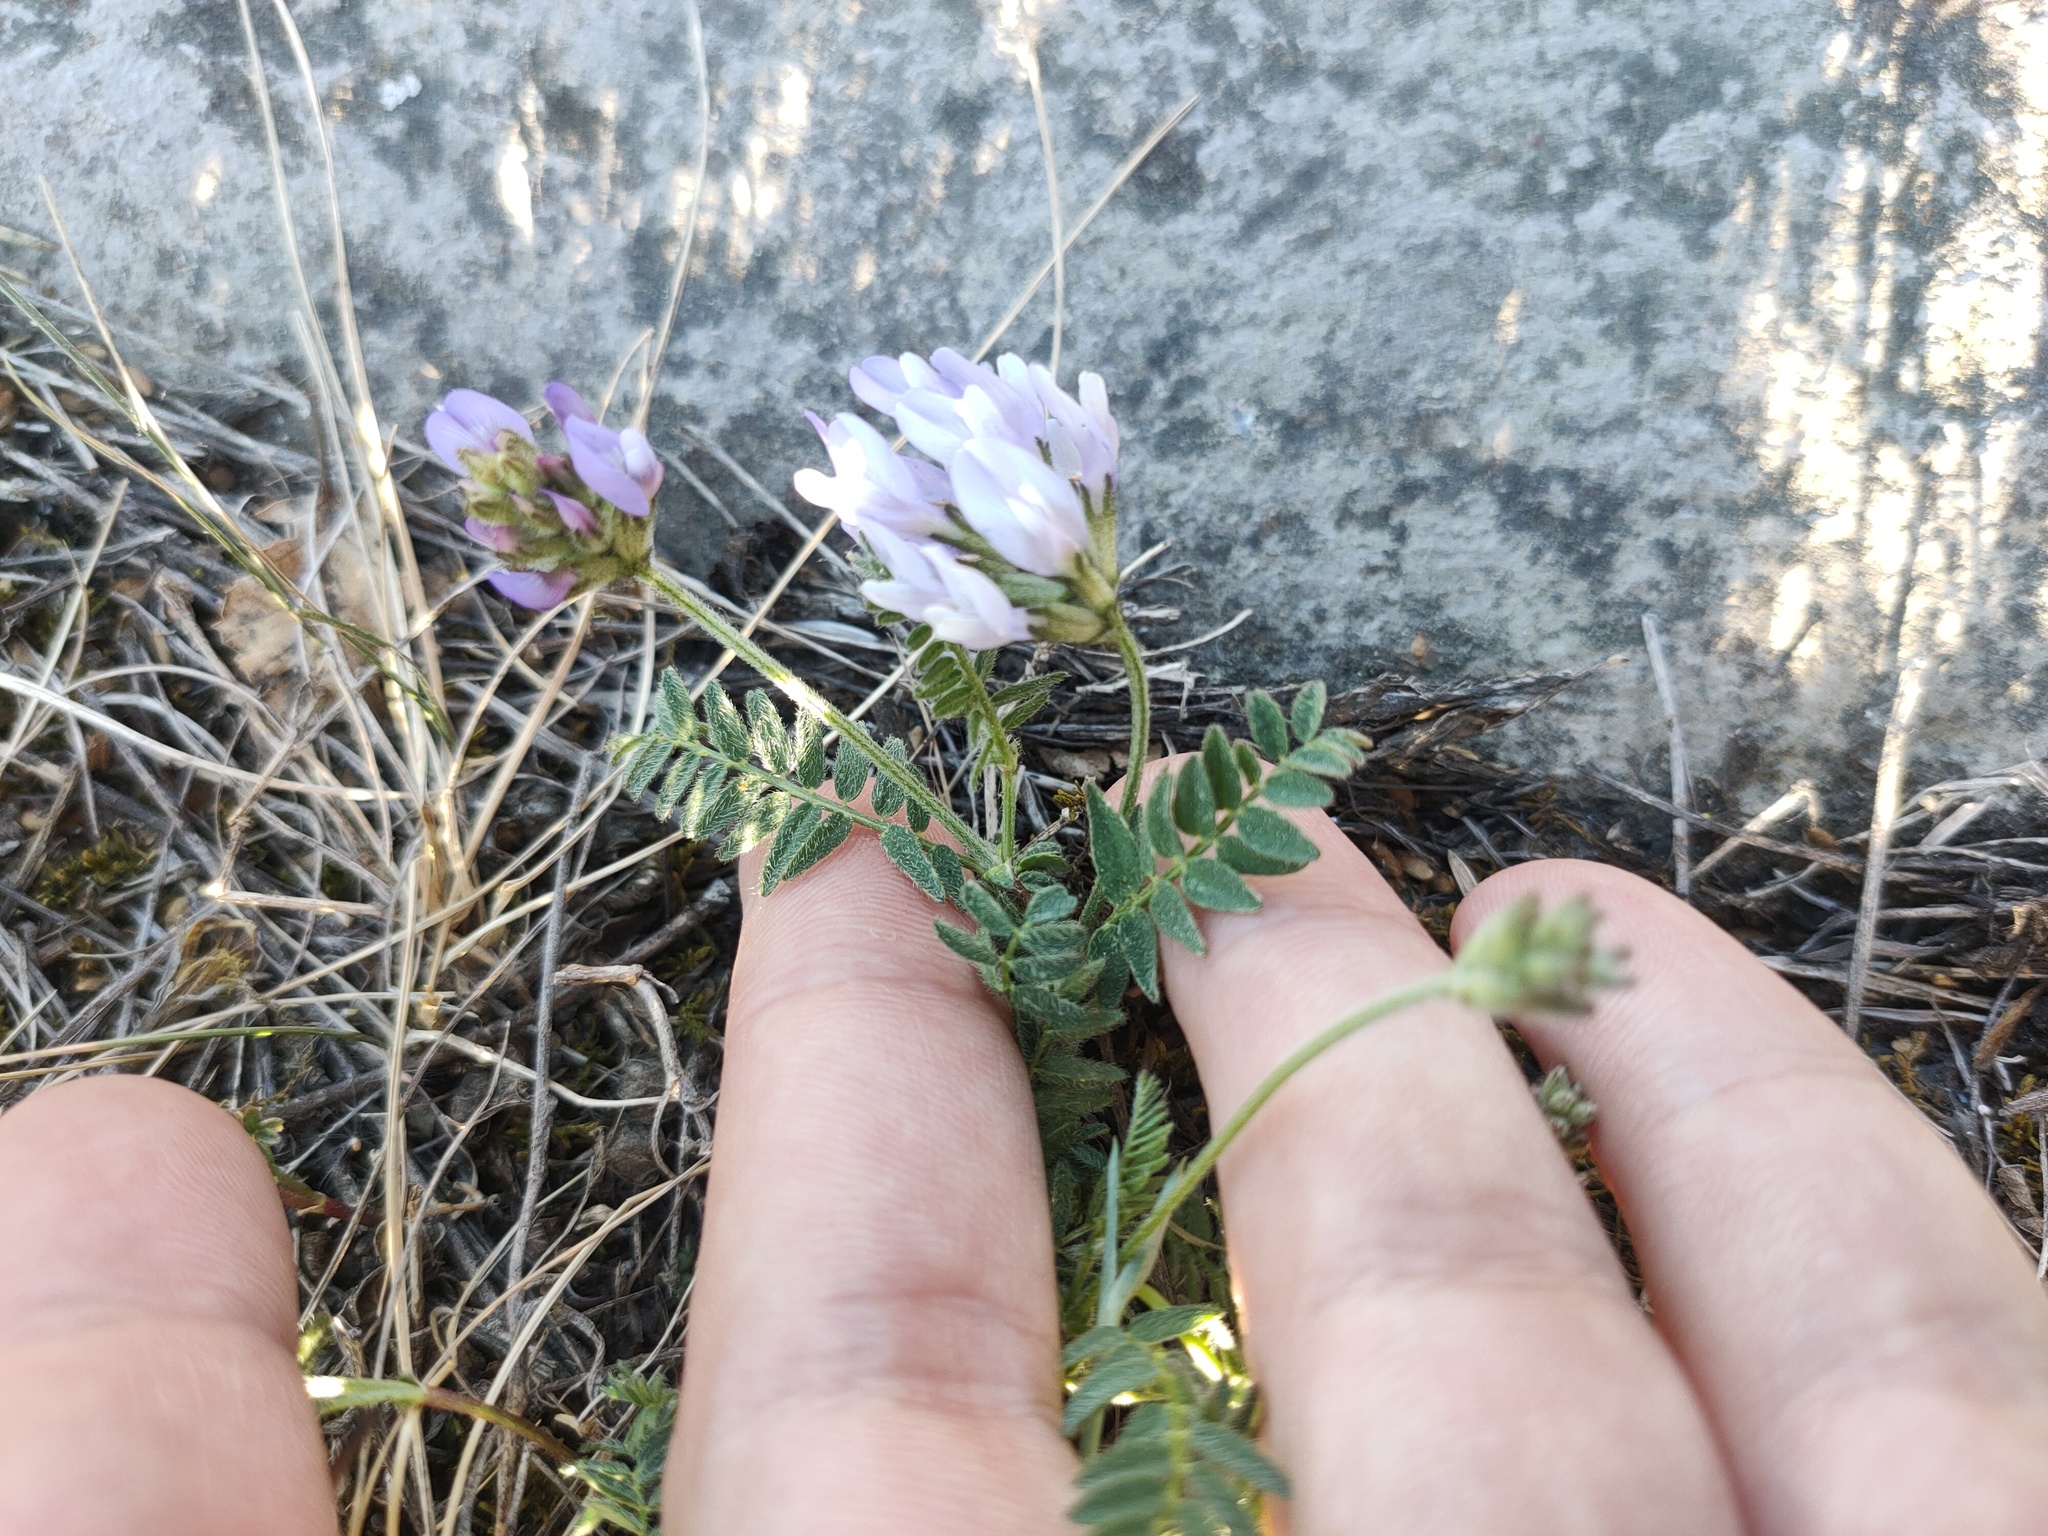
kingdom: Plantae
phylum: Tracheophyta
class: Magnoliopsida
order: Fabales
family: Fabaceae
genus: Astragalus
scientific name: Astragalus danicus
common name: Purple milk-vetch
